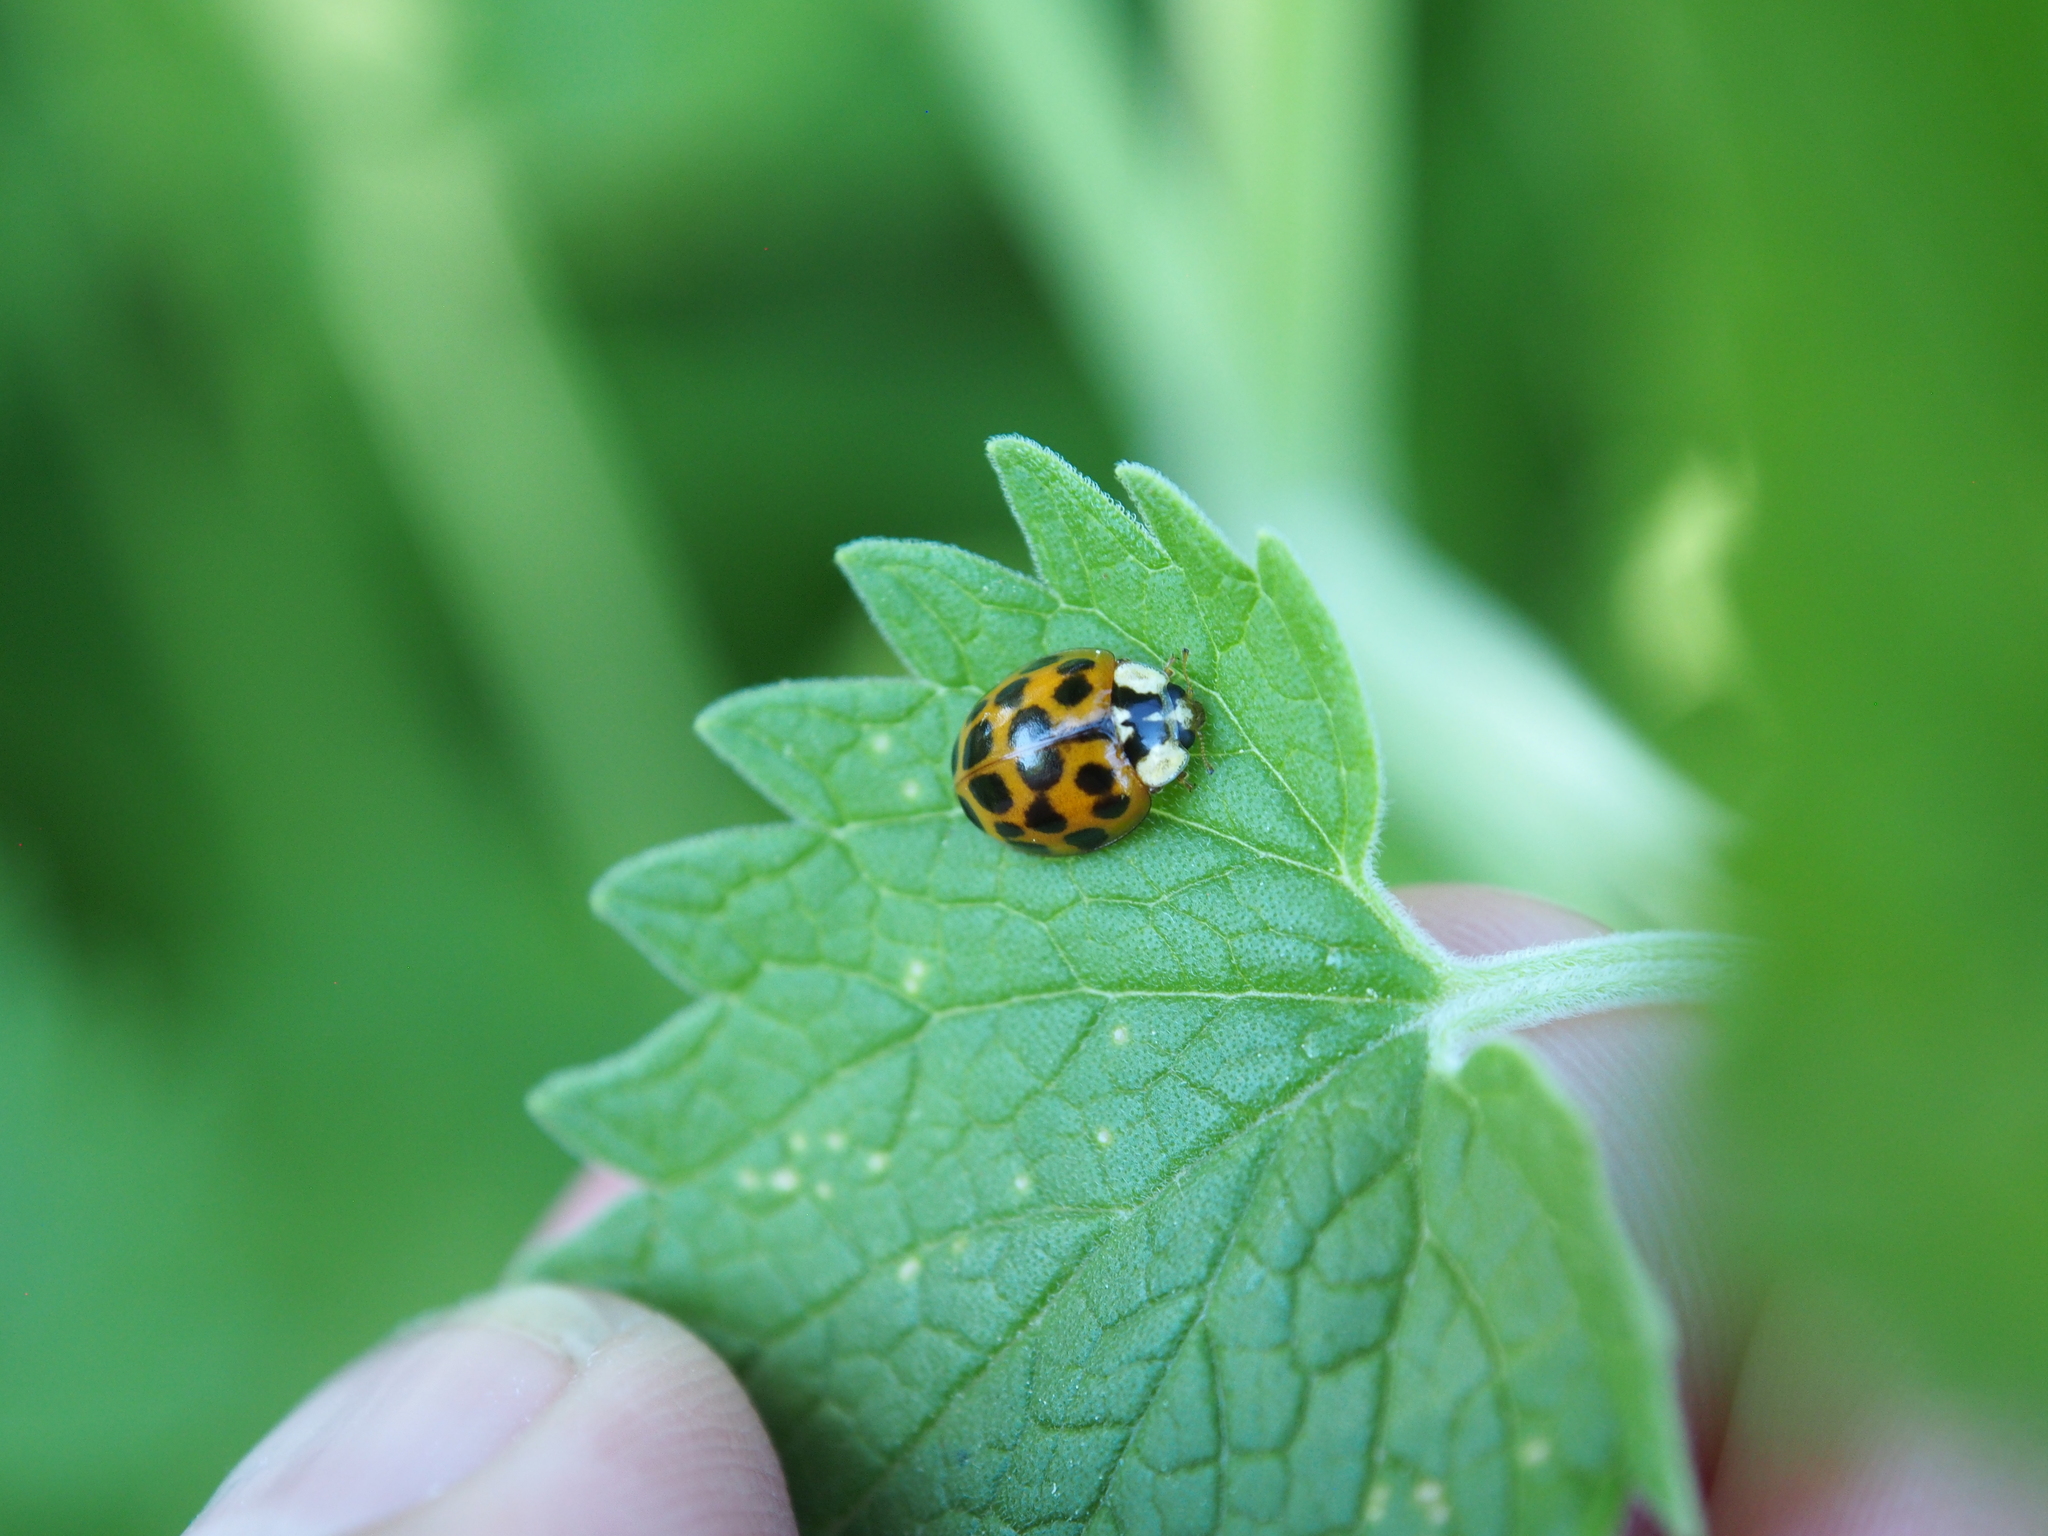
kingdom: Animalia
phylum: Arthropoda
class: Insecta
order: Coleoptera
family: Coccinellidae
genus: Harmonia
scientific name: Harmonia axyridis
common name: Harlequin ladybird
